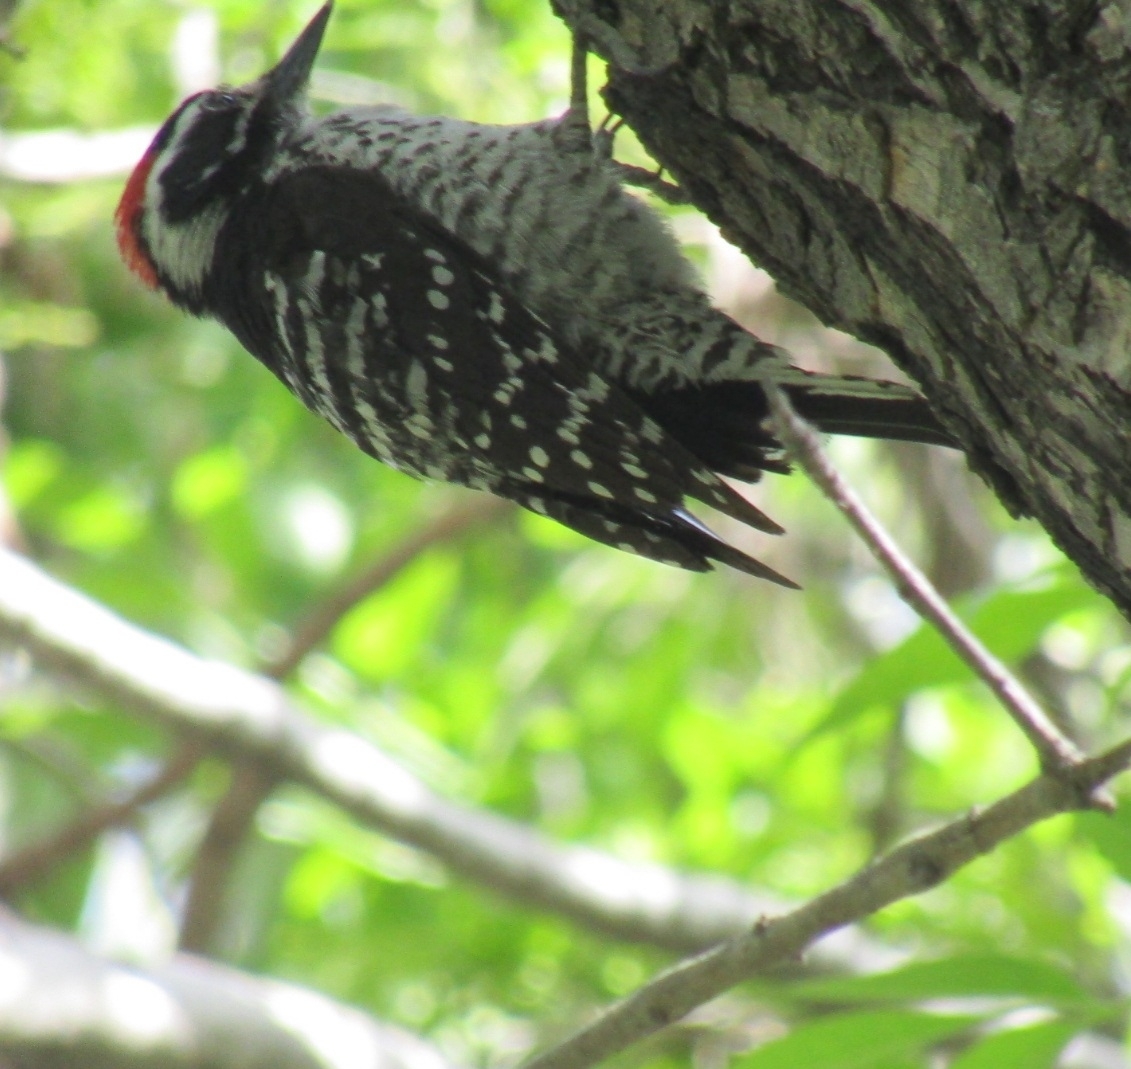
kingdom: Animalia
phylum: Chordata
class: Aves
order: Piciformes
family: Picidae
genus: Dryobates
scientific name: Dryobates nuttallii
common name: Nuttall's woodpecker
